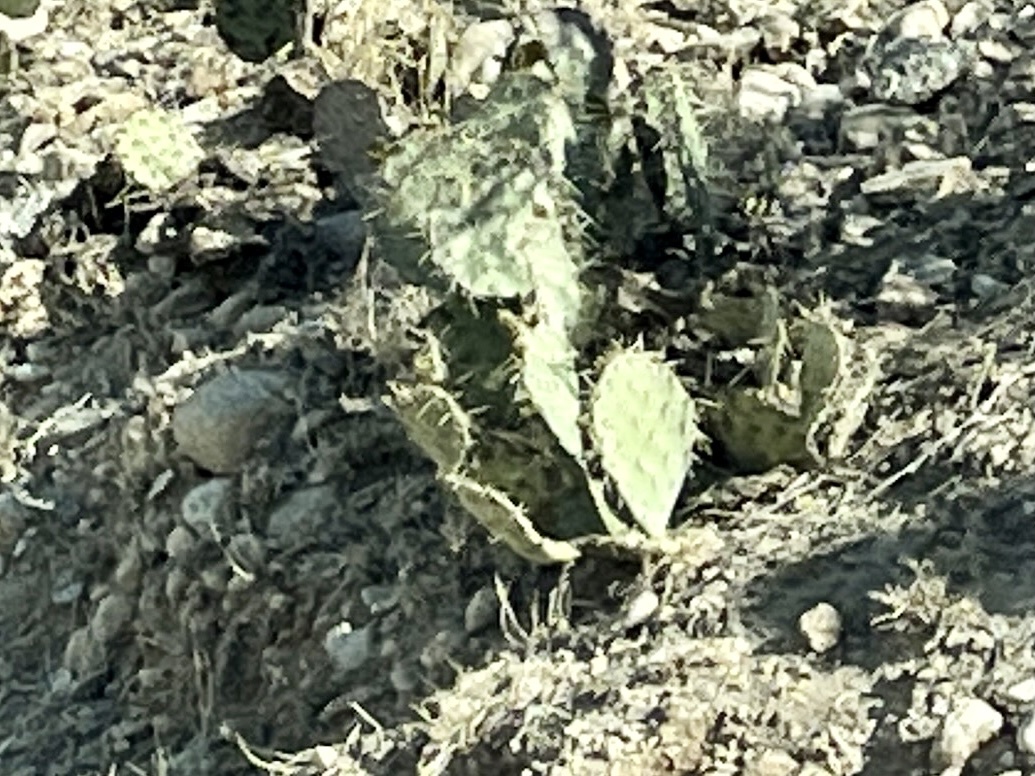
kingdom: Plantae
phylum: Tracheophyta
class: Magnoliopsida
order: Caryophyllales
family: Cactaceae
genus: Opuntia
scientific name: Opuntia engelmannii
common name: Cactus-apple
